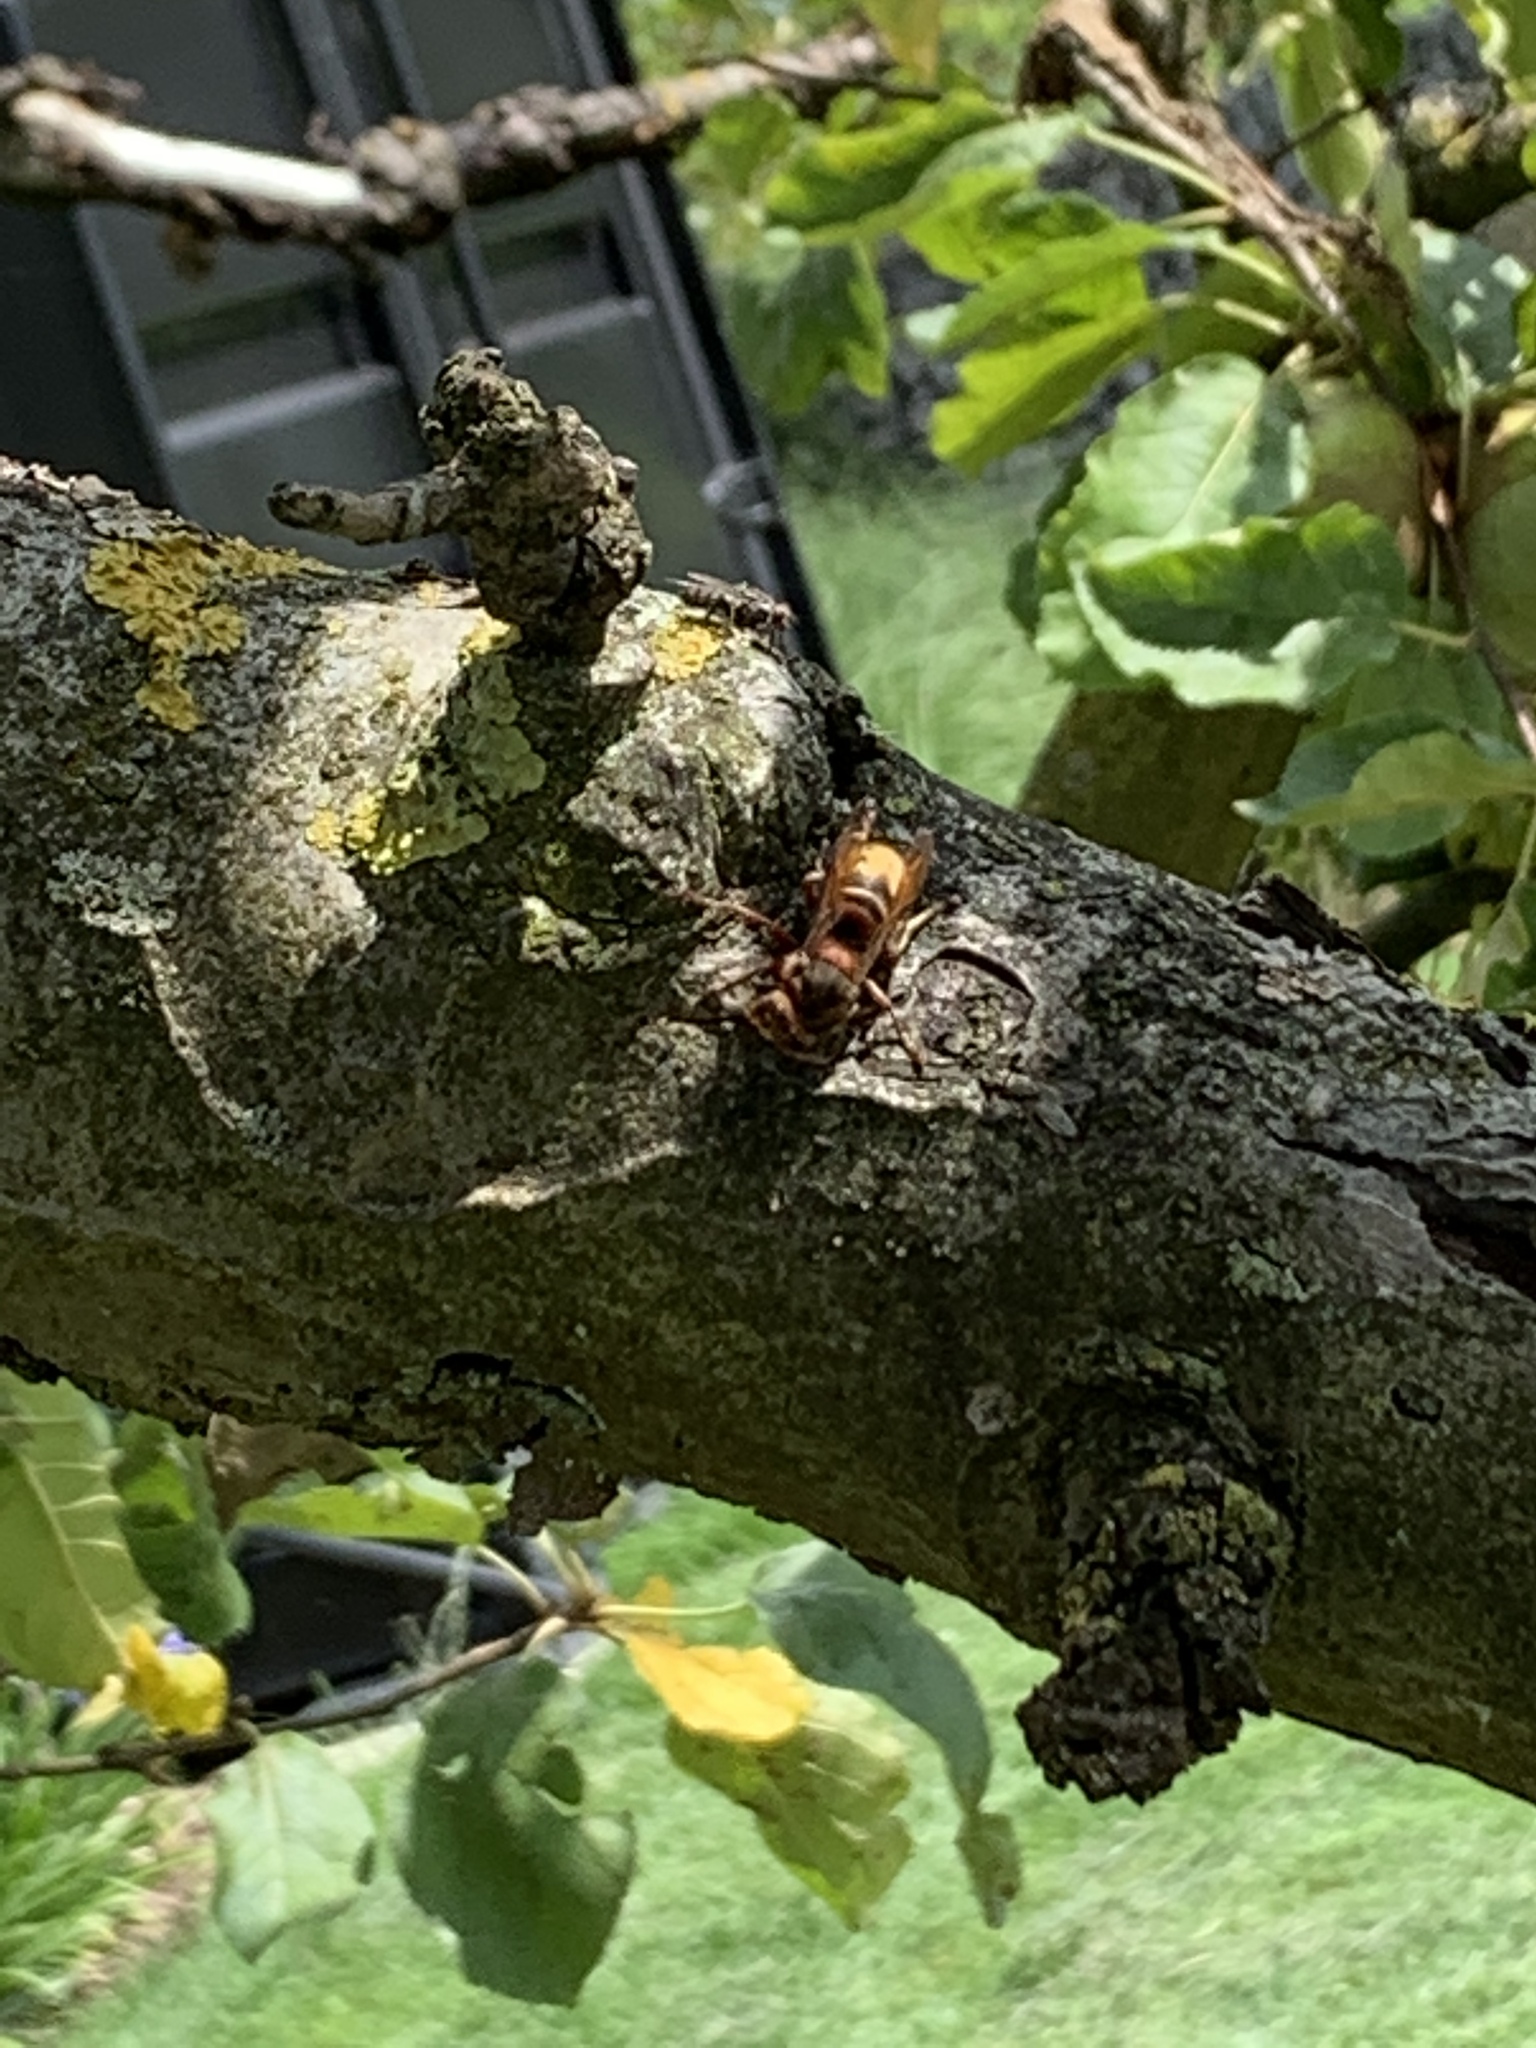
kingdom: Animalia
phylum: Arthropoda
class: Insecta
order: Hymenoptera
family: Vespidae
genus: Vespa
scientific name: Vespa crabro
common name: Hornet
